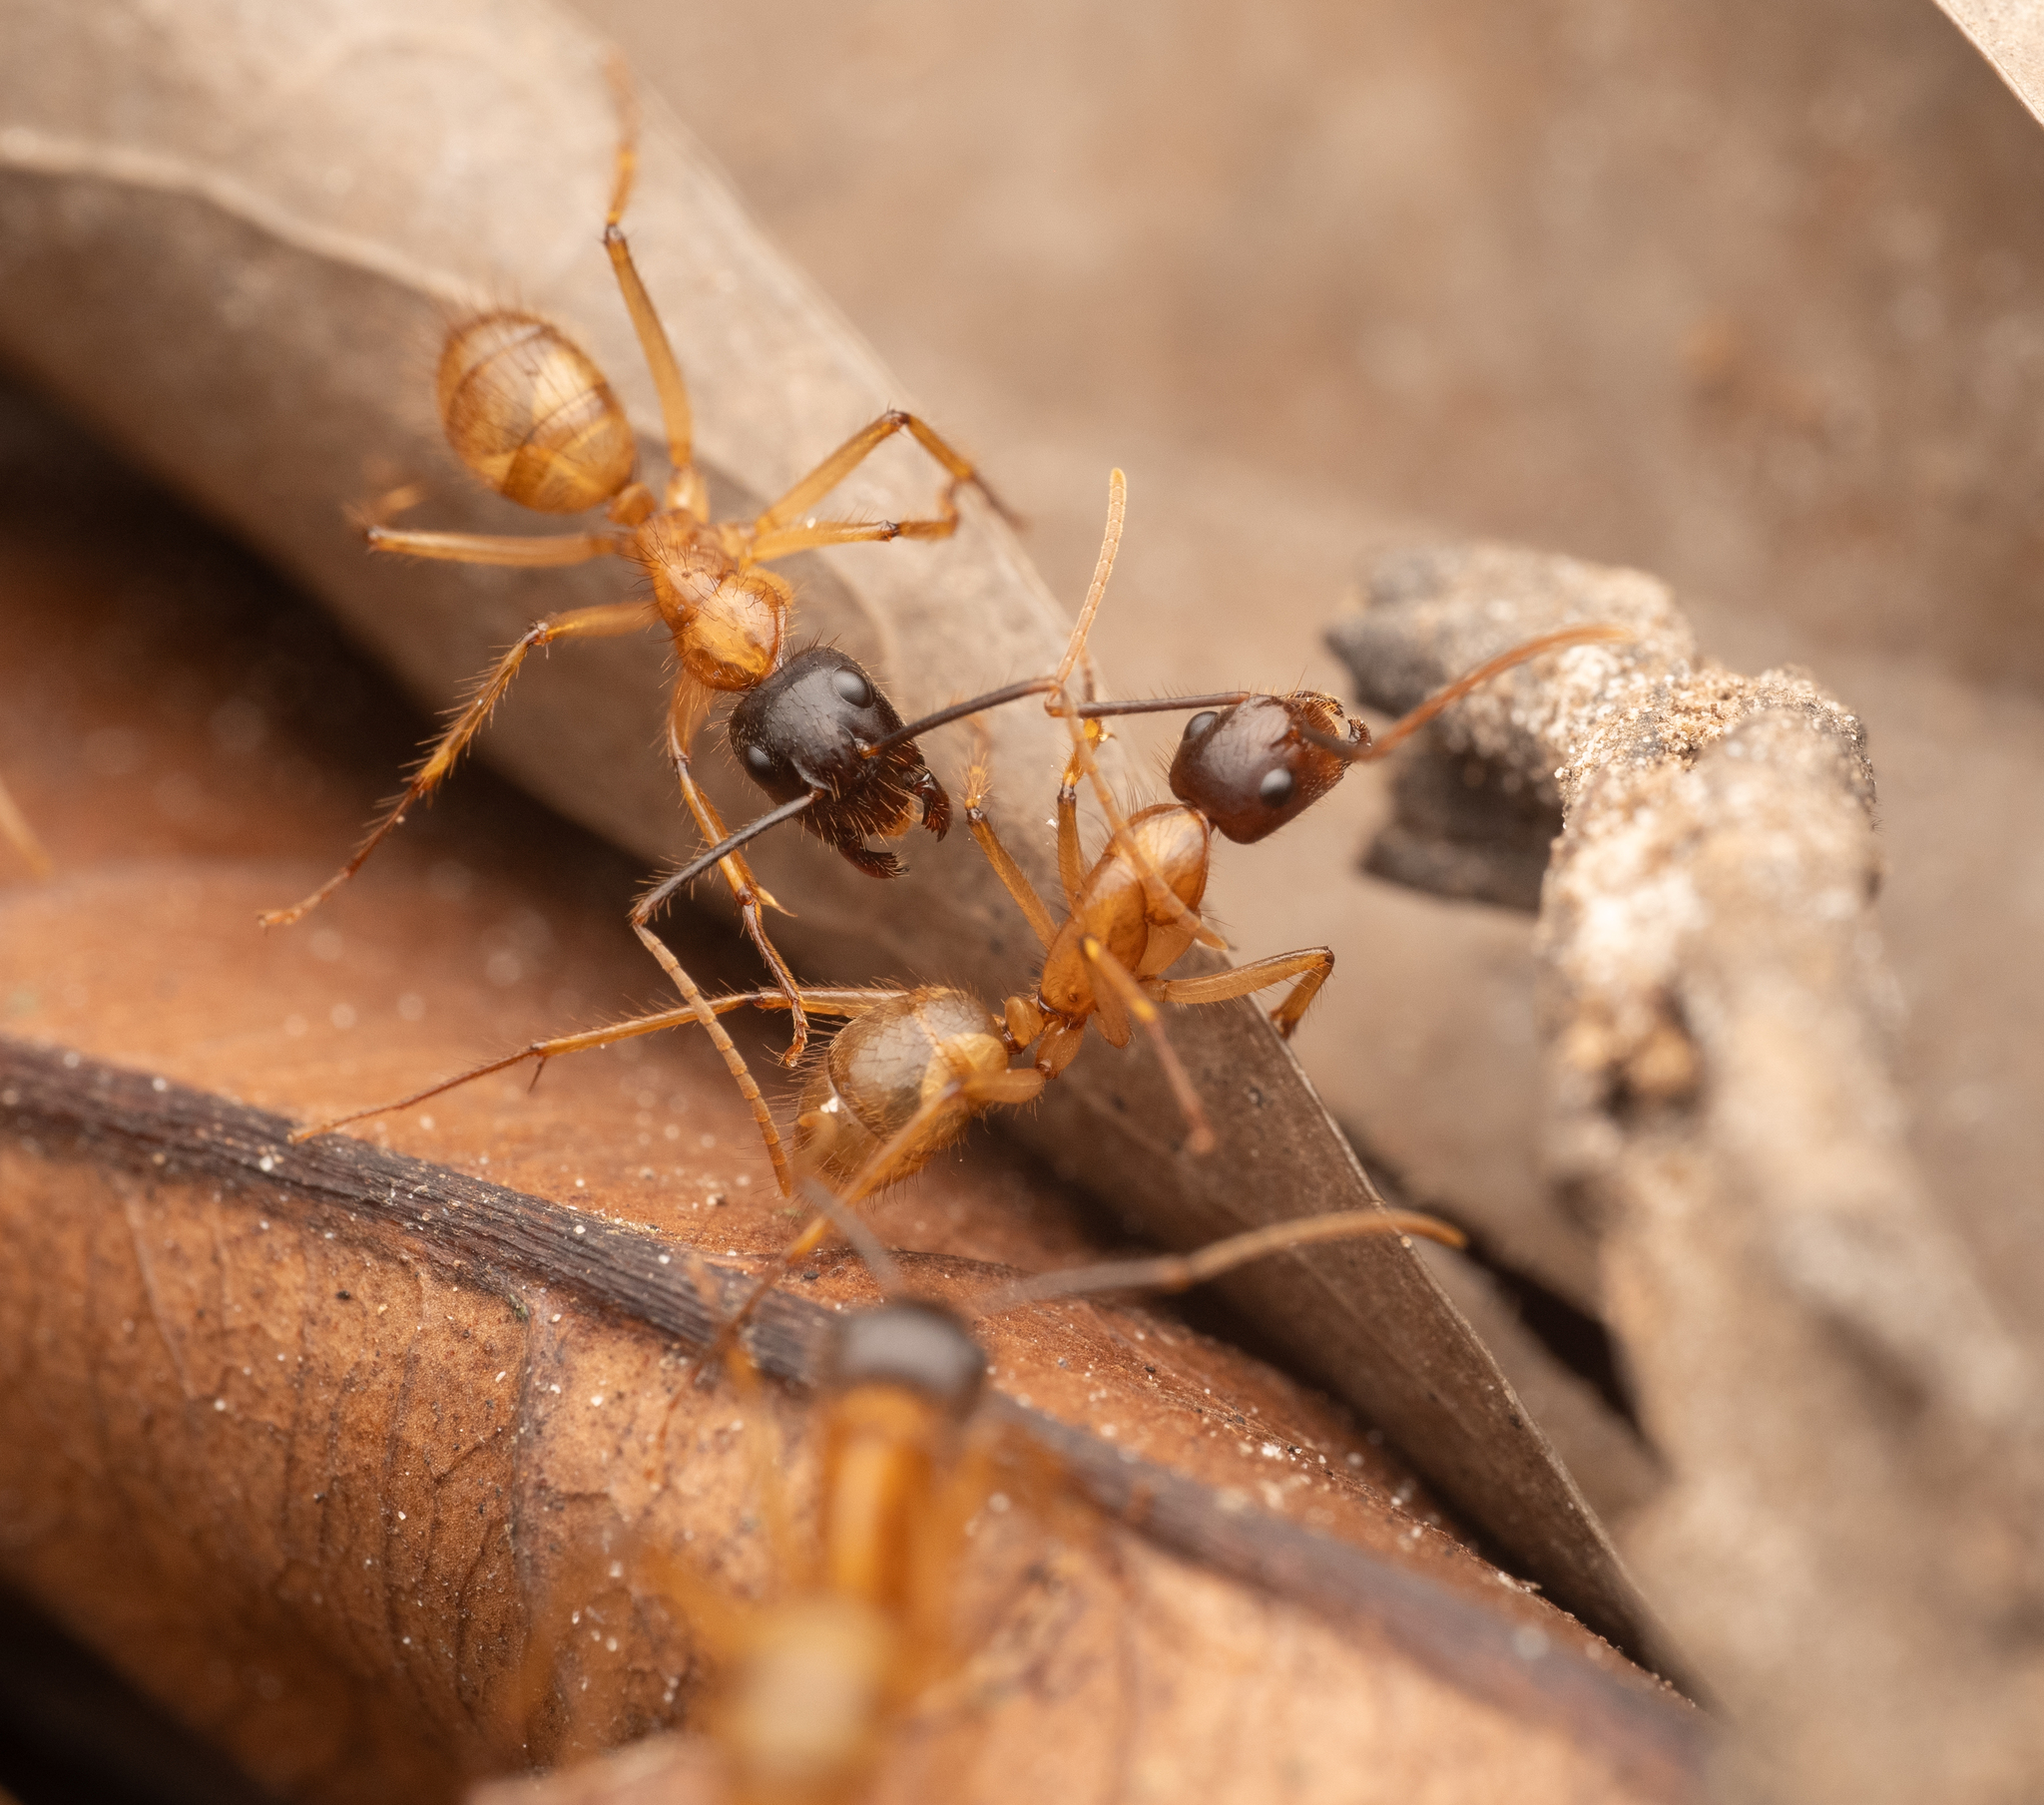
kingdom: Animalia
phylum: Arthropoda
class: Insecta
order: Hymenoptera
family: Formicidae
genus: Camponotus
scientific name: Camponotus atriceps
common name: Florida carpenter ant
